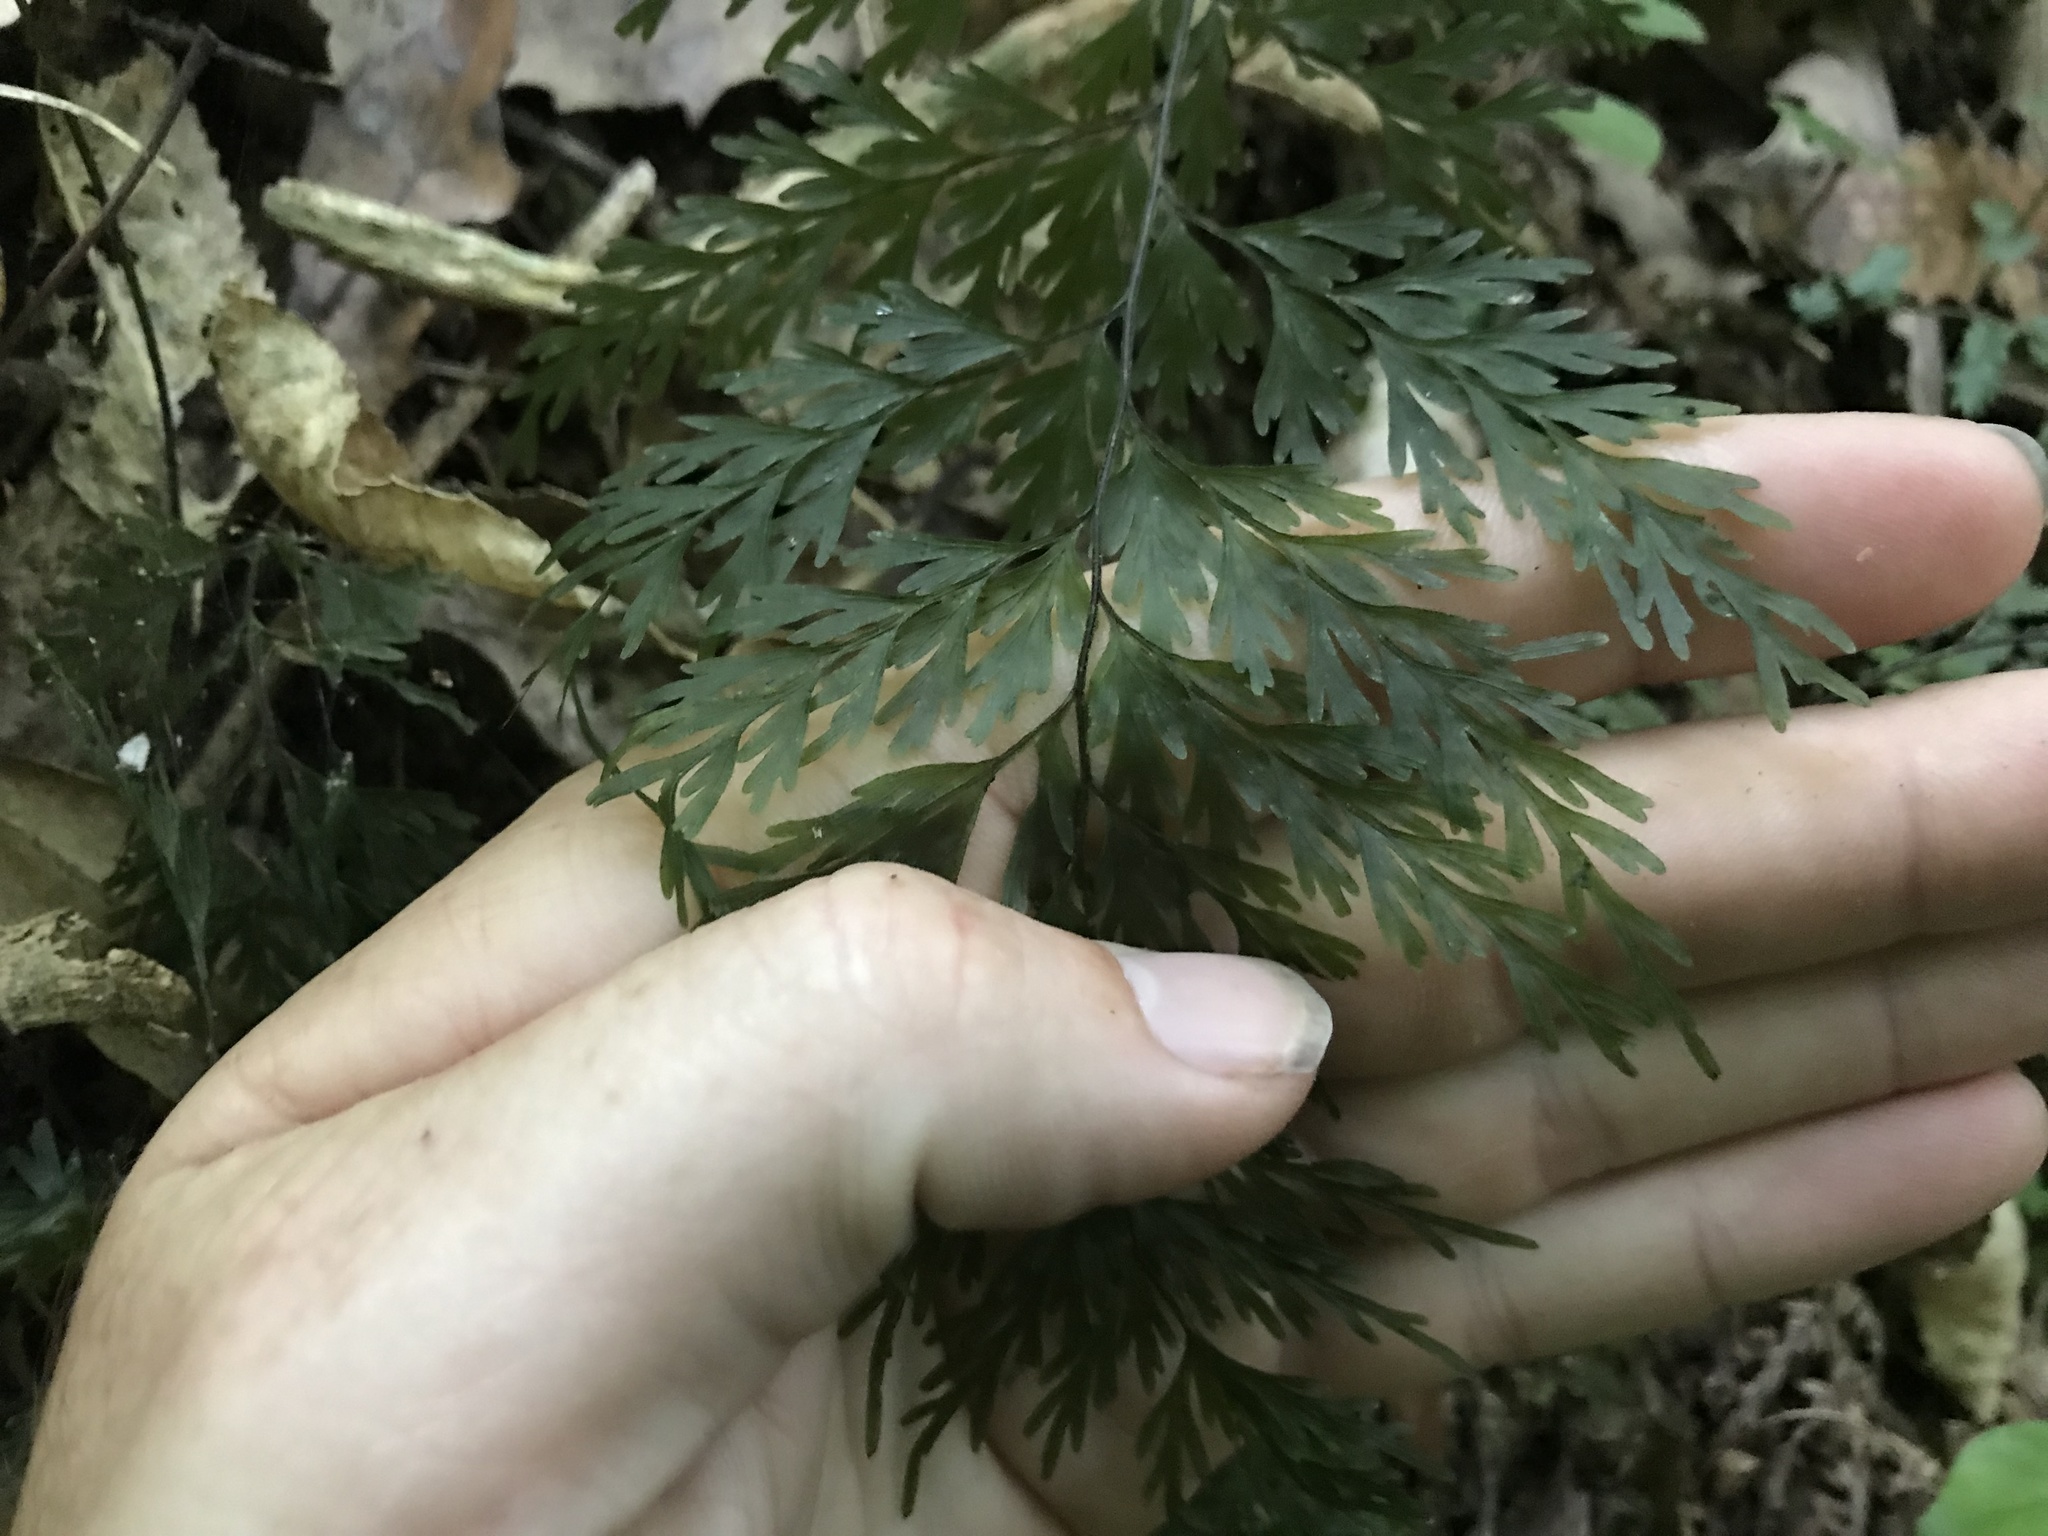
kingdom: Plantae
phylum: Tracheophyta
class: Polypodiopsida
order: Hymenophyllales
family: Hymenophyllaceae
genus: Hymenophyllum
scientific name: Hymenophyllum demissum
